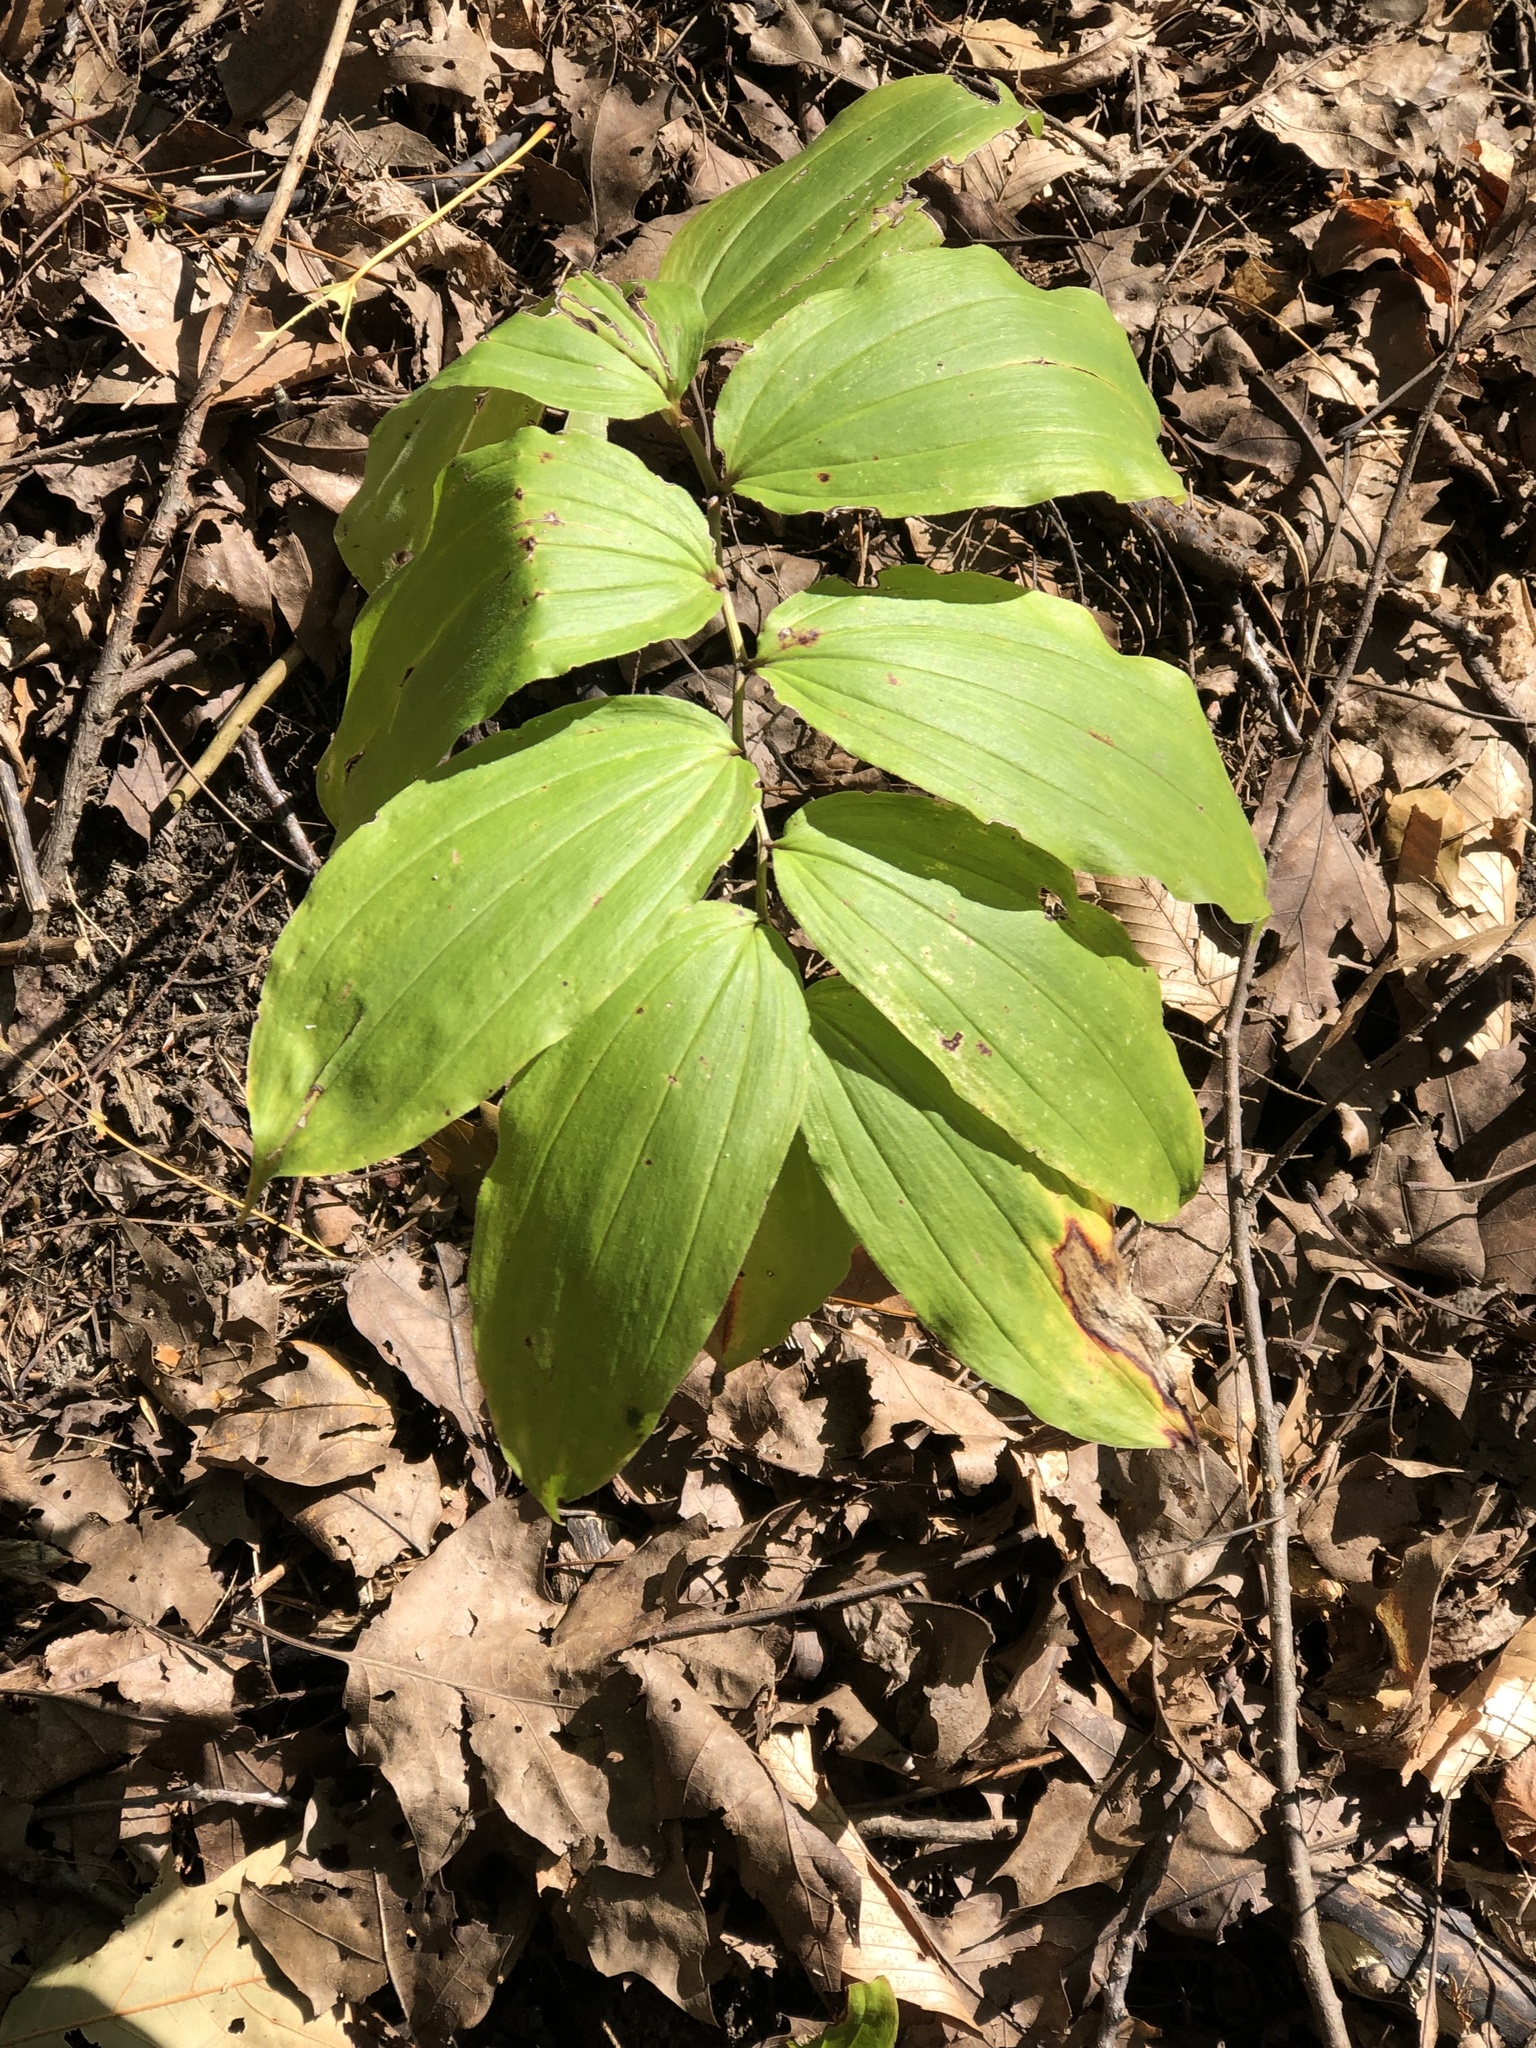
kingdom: Plantae
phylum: Tracheophyta
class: Liliopsida
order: Asparagales
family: Asparagaceae
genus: Maianthemum
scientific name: Maianthemum racemosum
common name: False spikenard
